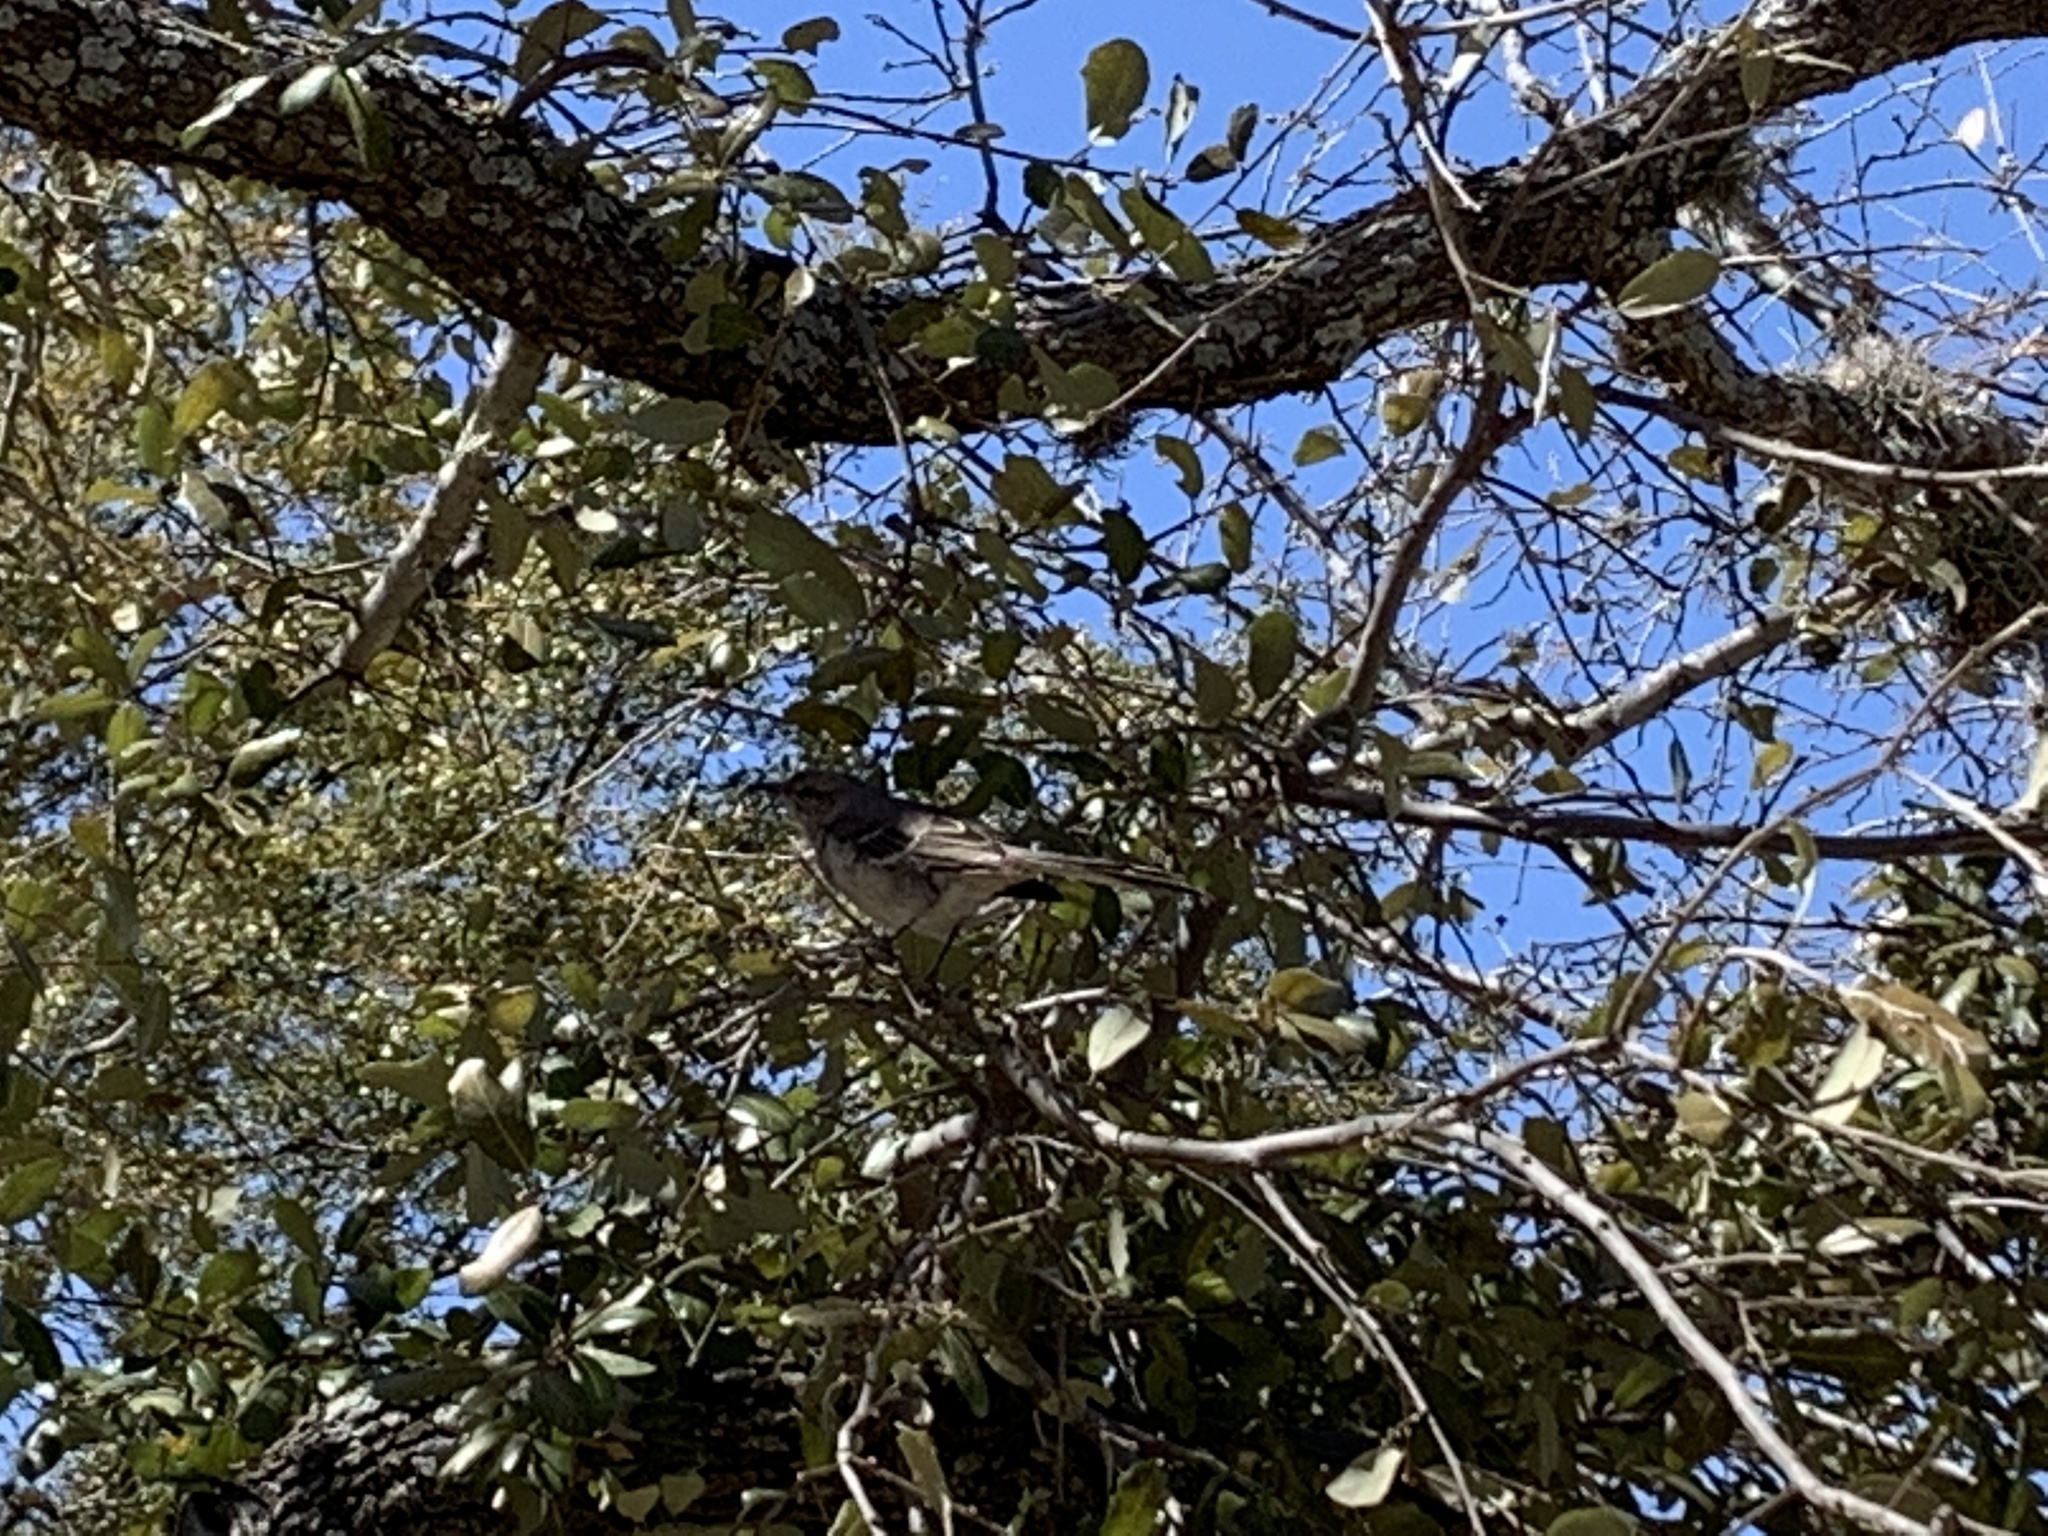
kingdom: Animalia
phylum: Chordata
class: Aves
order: Passeriformes
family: Mimidae
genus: Mimus
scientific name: Mimus polyglottos
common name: Northern mockingbird
